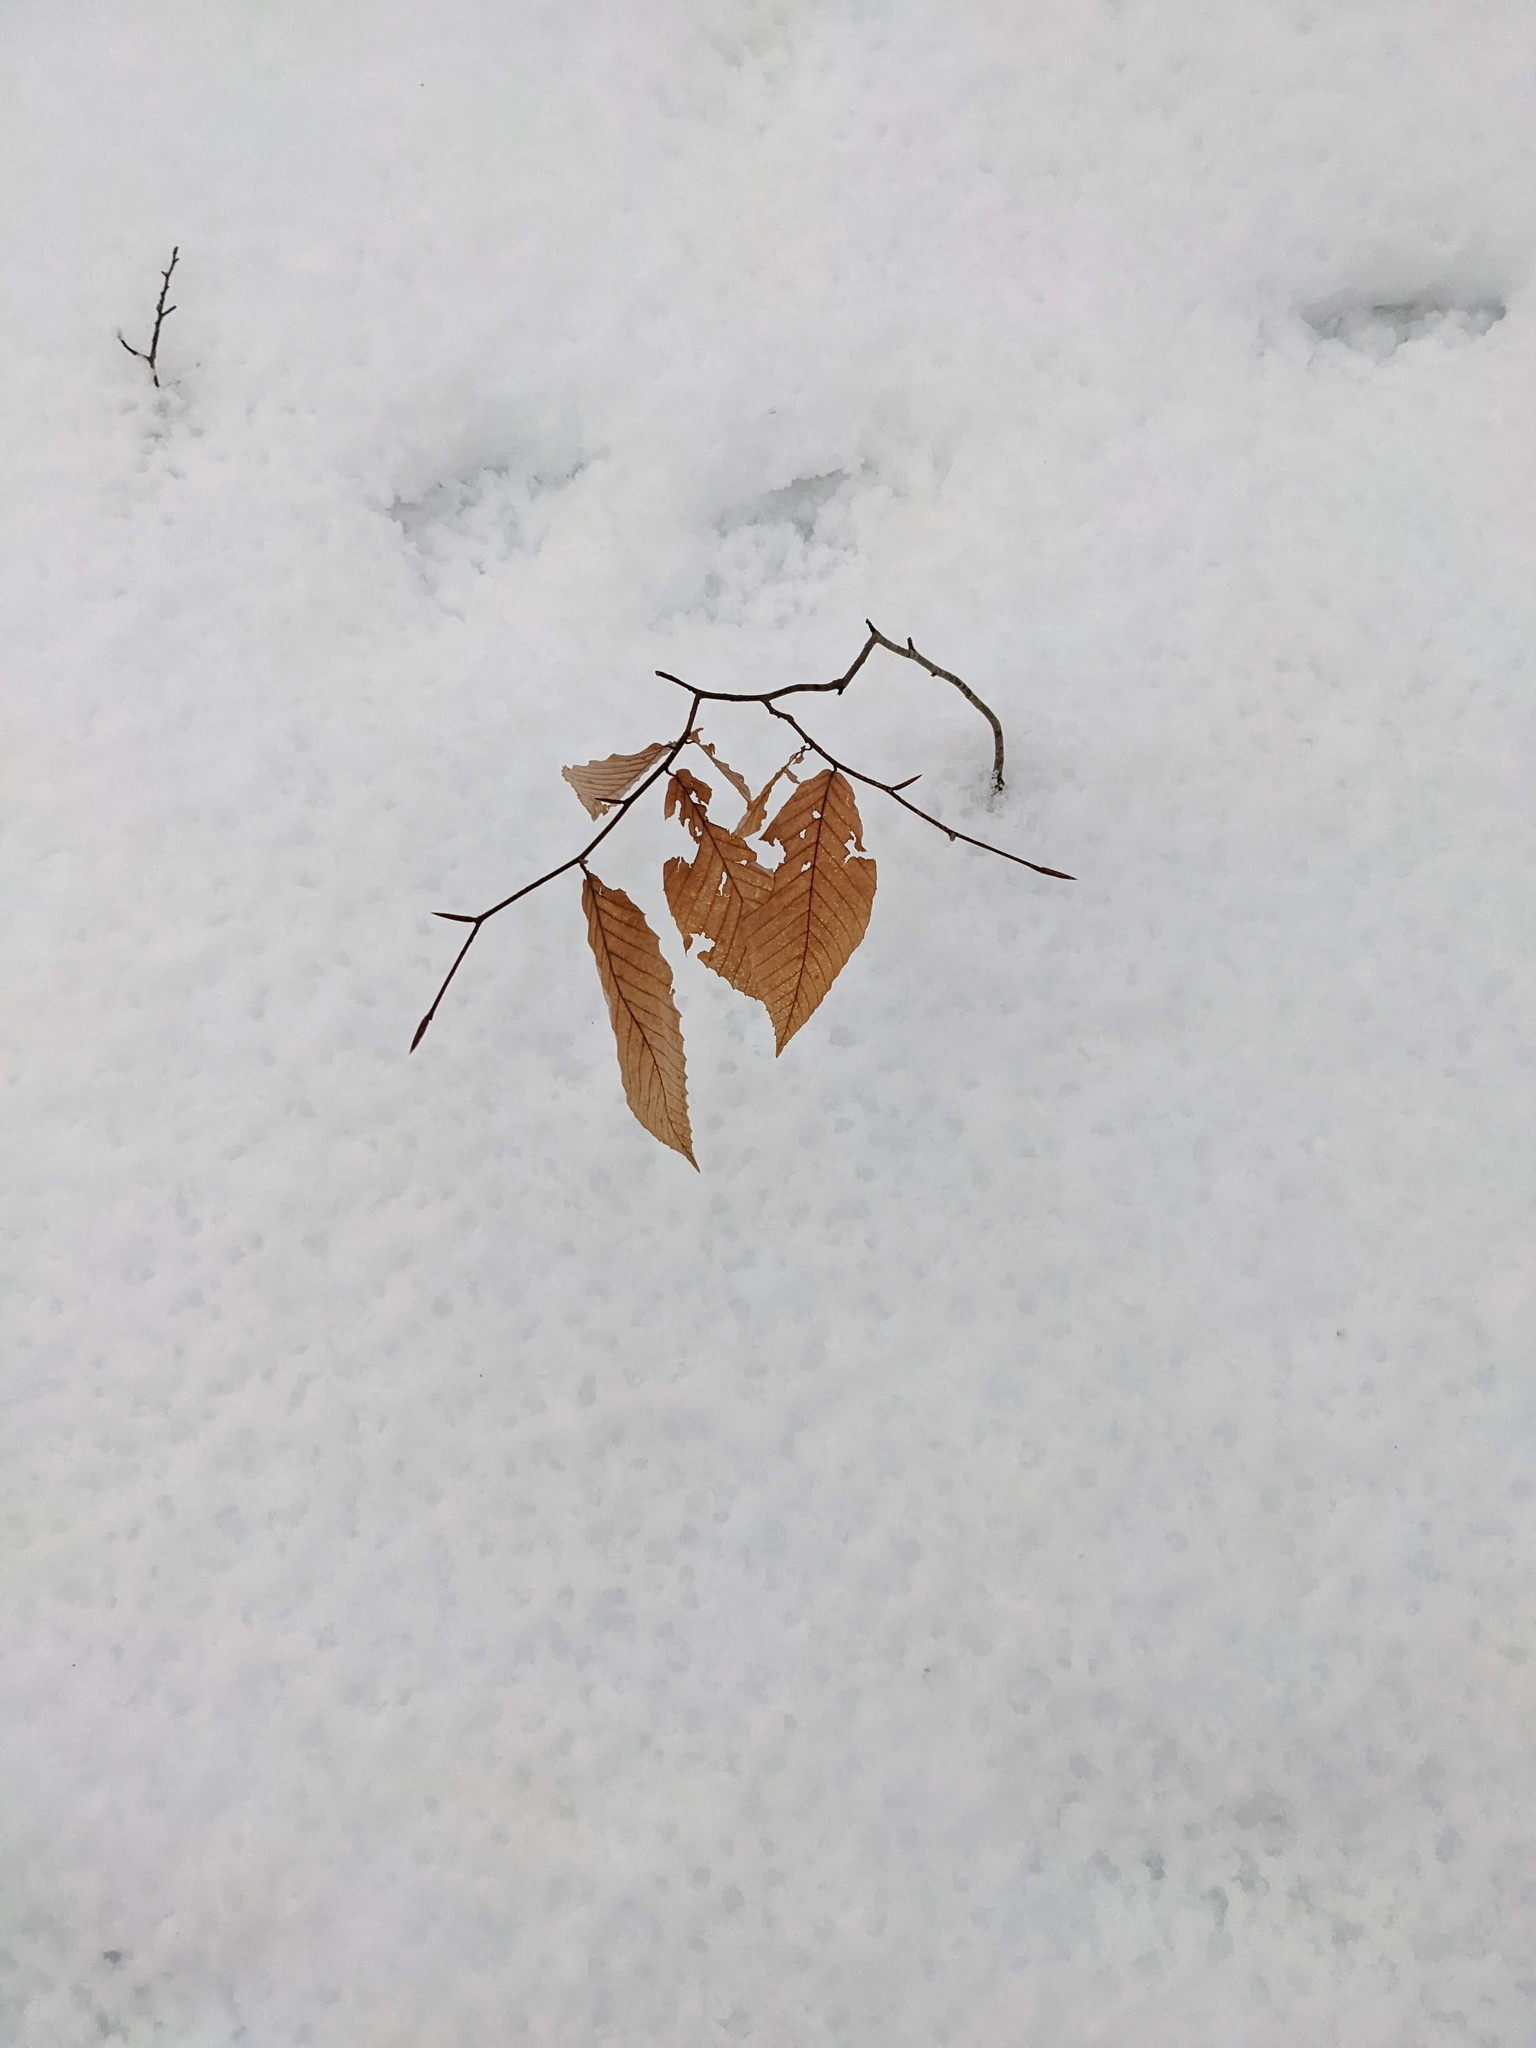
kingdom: Plantae
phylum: Tracheophyta
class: Magnoliopsida
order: Fagales
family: Fagaceae
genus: Fagus
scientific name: Fagus grandifolia
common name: American beech
